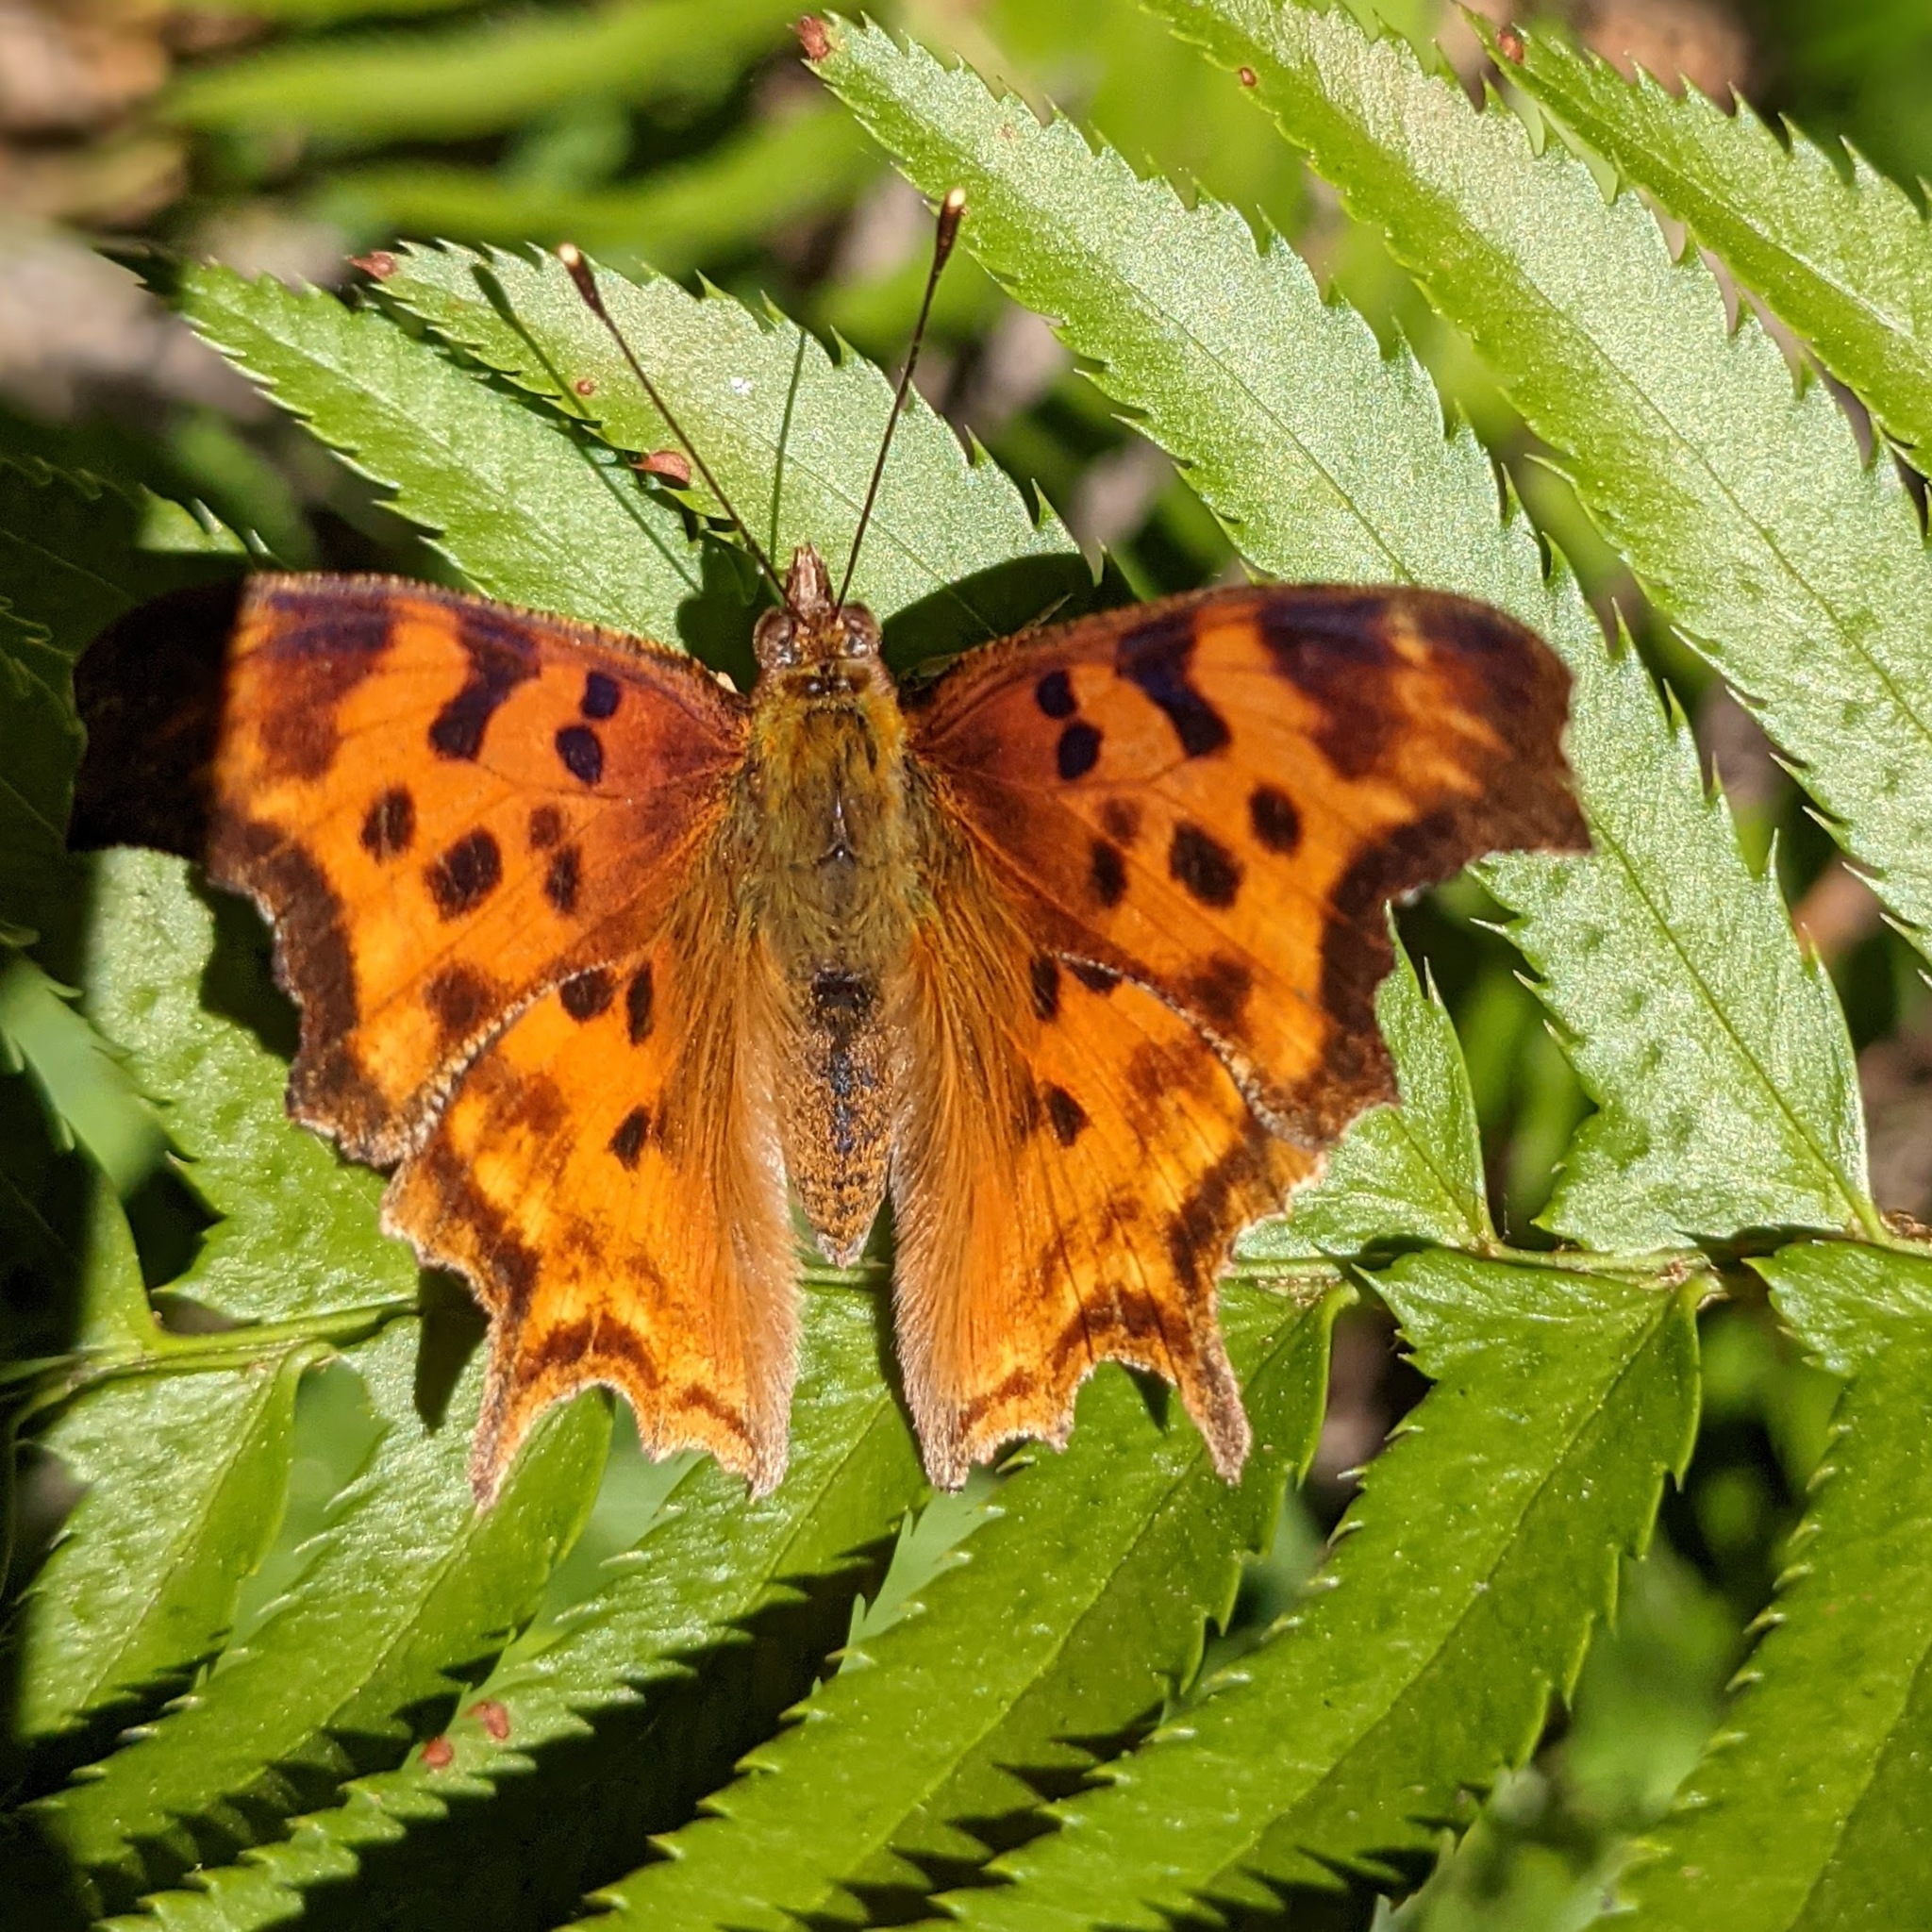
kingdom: Animalia
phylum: Arthropoda
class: Insecta
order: Lepidoptera
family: Nymphalidae
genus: Polygonia
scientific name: Polygonia satyrus
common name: Satyr angle wing
